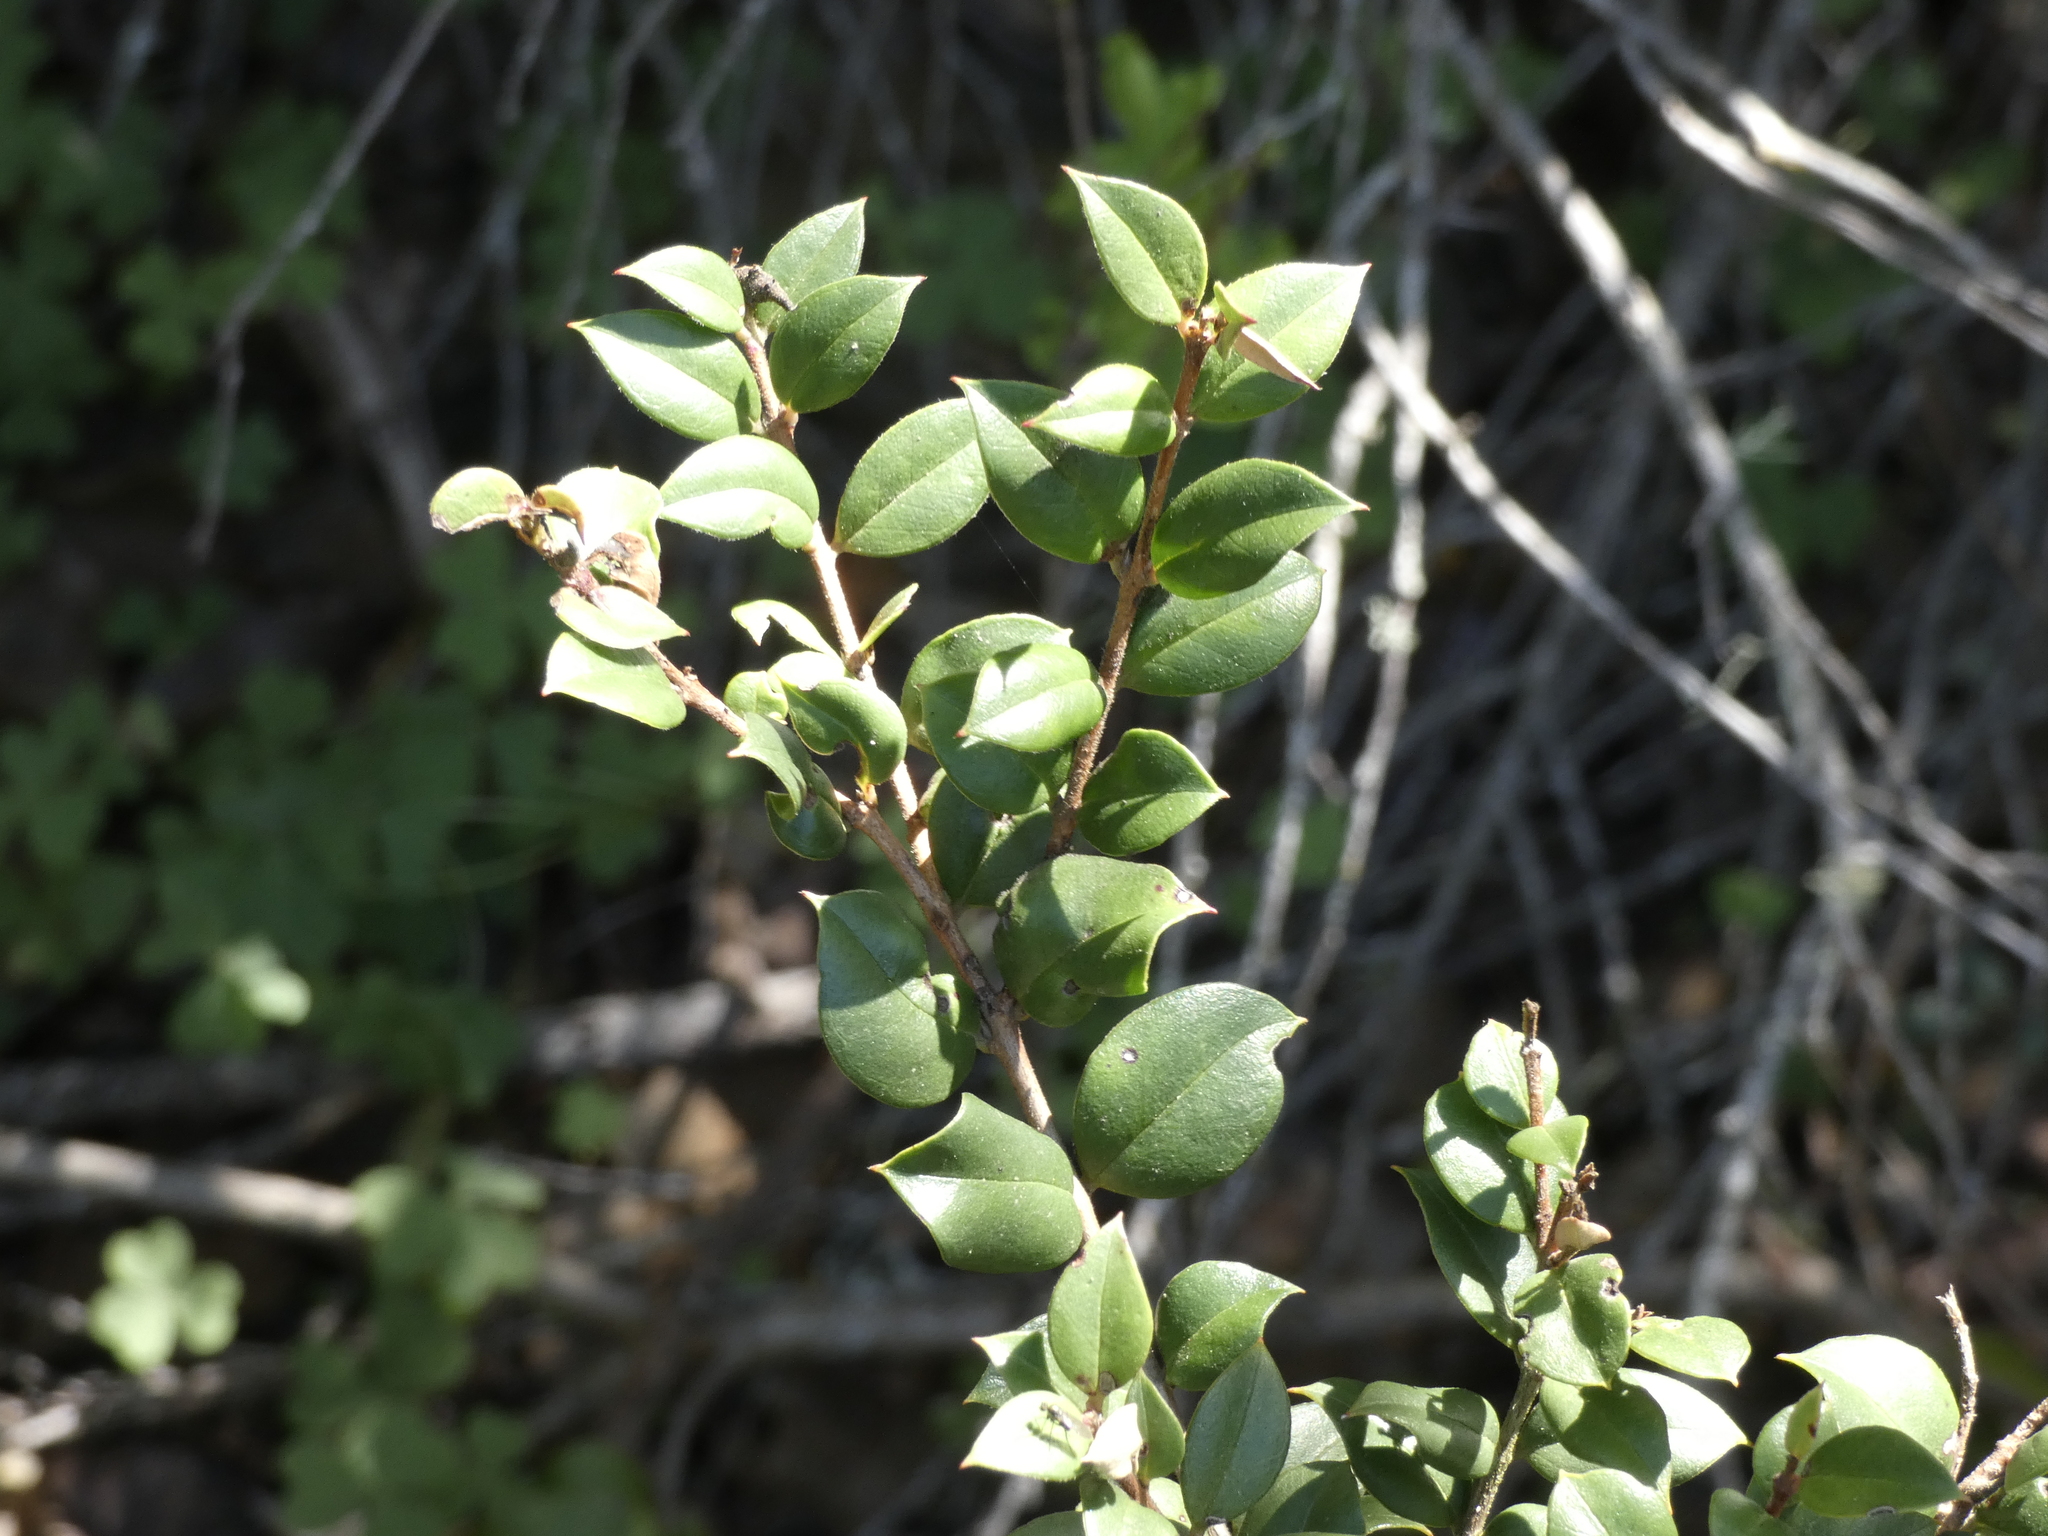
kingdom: Plantae
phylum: Tracheophyta
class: Magnoliopsida
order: Myrtales
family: Myrtaceae
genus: Luma
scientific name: Luma apiculata
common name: Chilean myrtle
